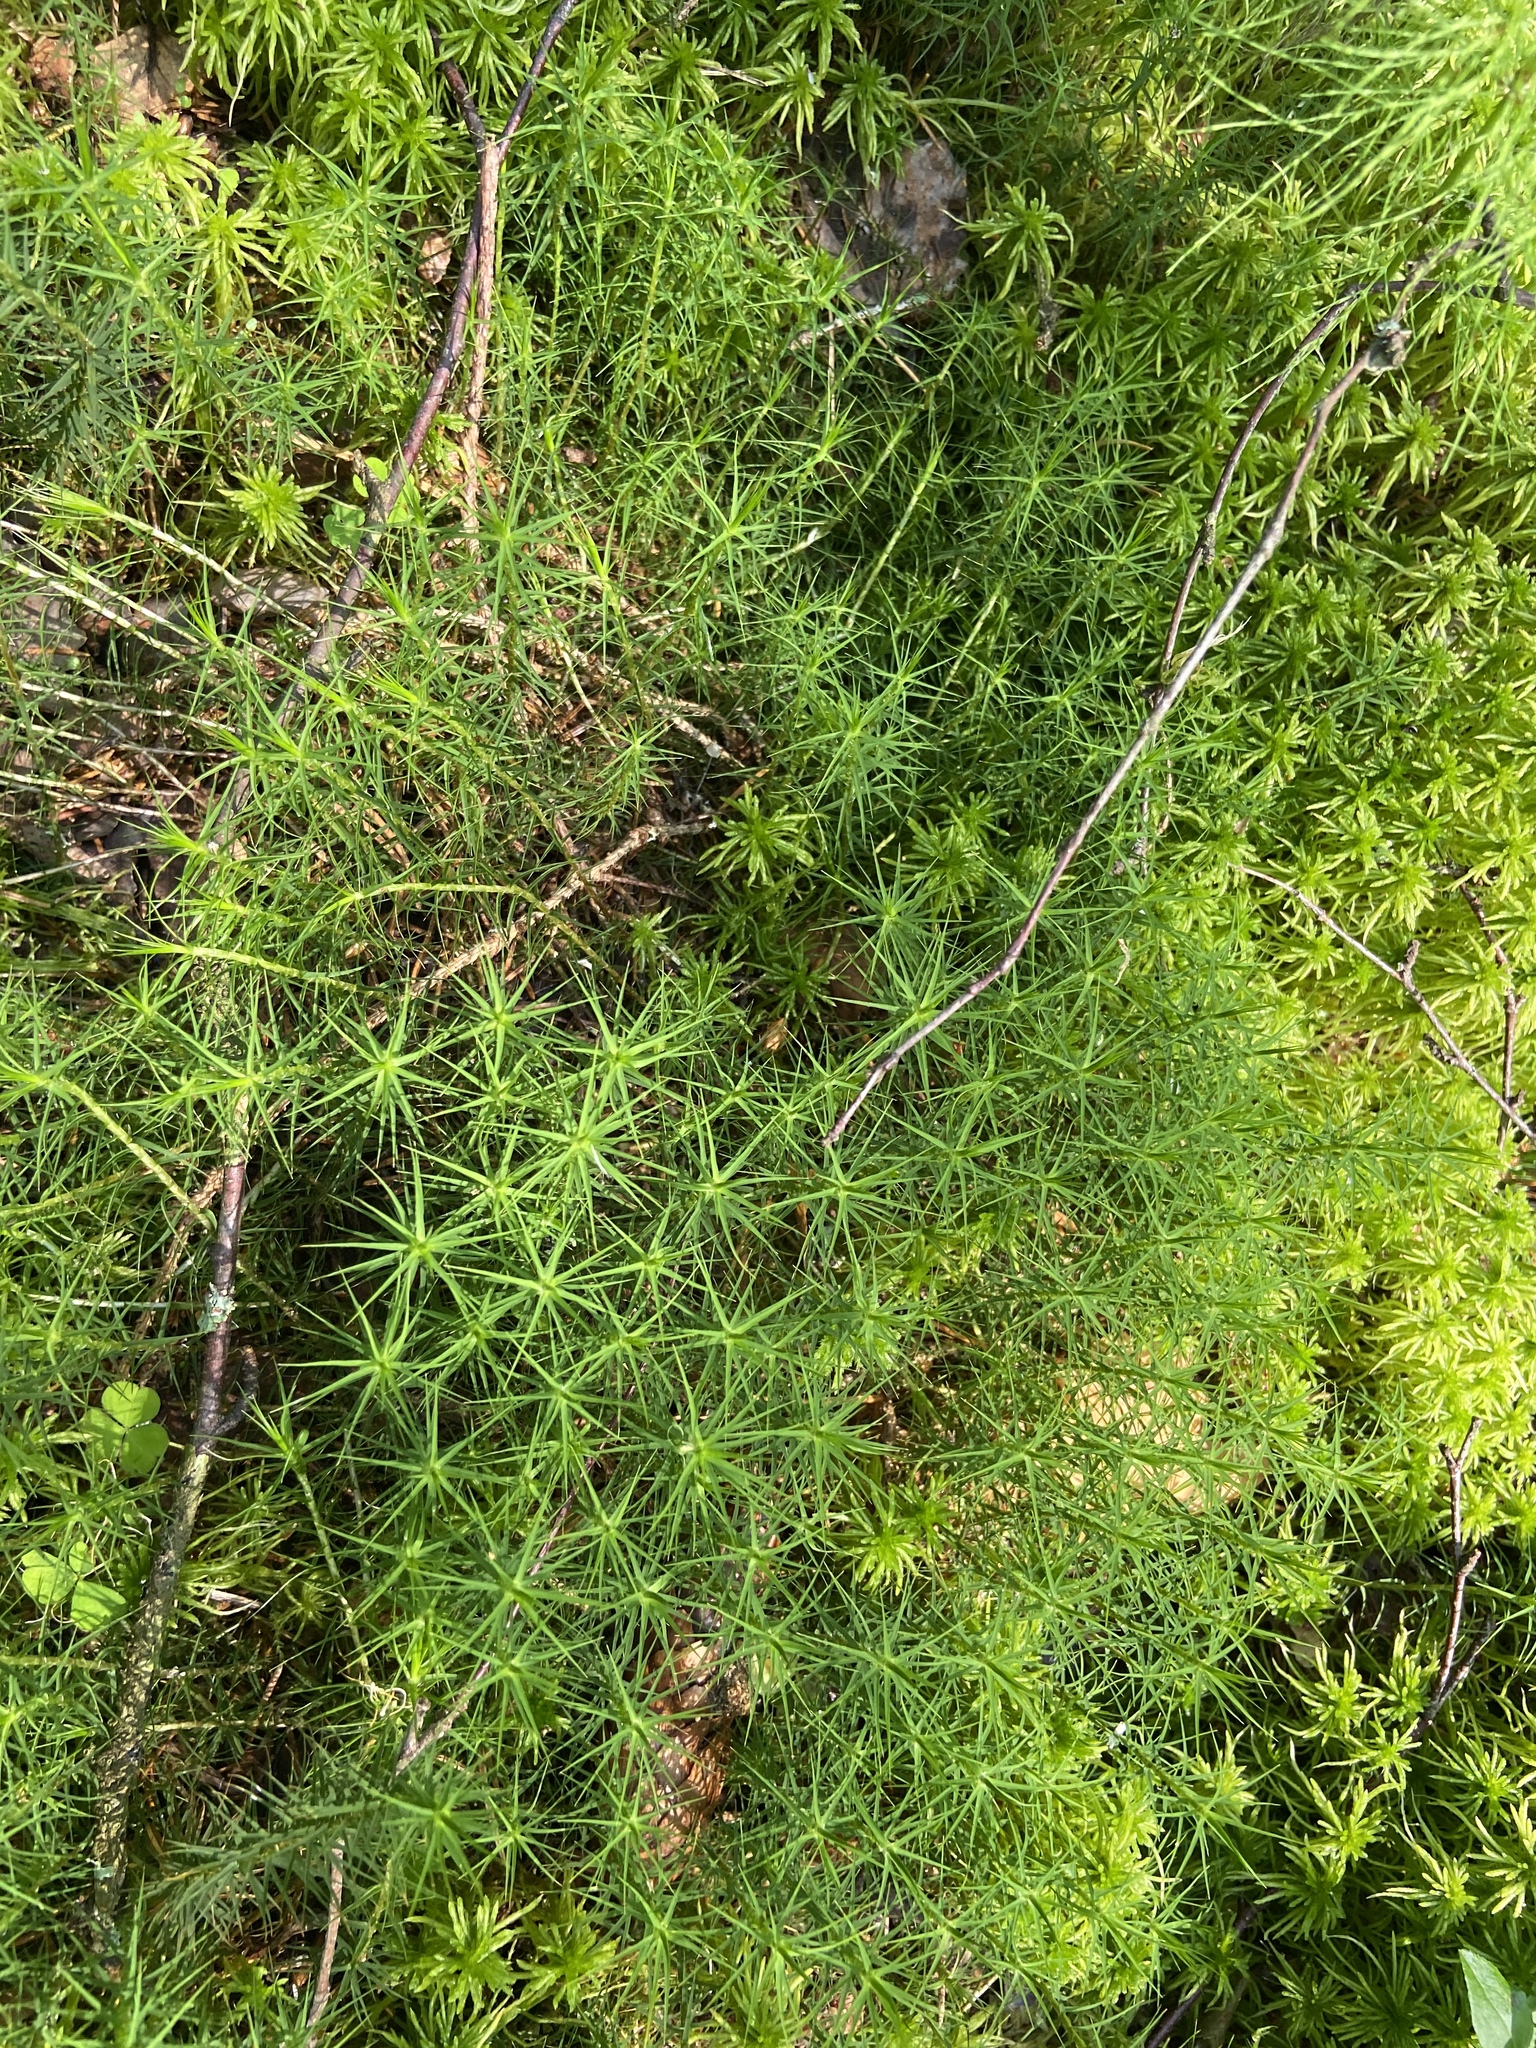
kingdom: Plantae
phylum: Bryophyta
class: Polytrichopsida
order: Polytrichales
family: Polytrichaceae
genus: Polytrichum
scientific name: Polytrichum commune
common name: Common haircap
